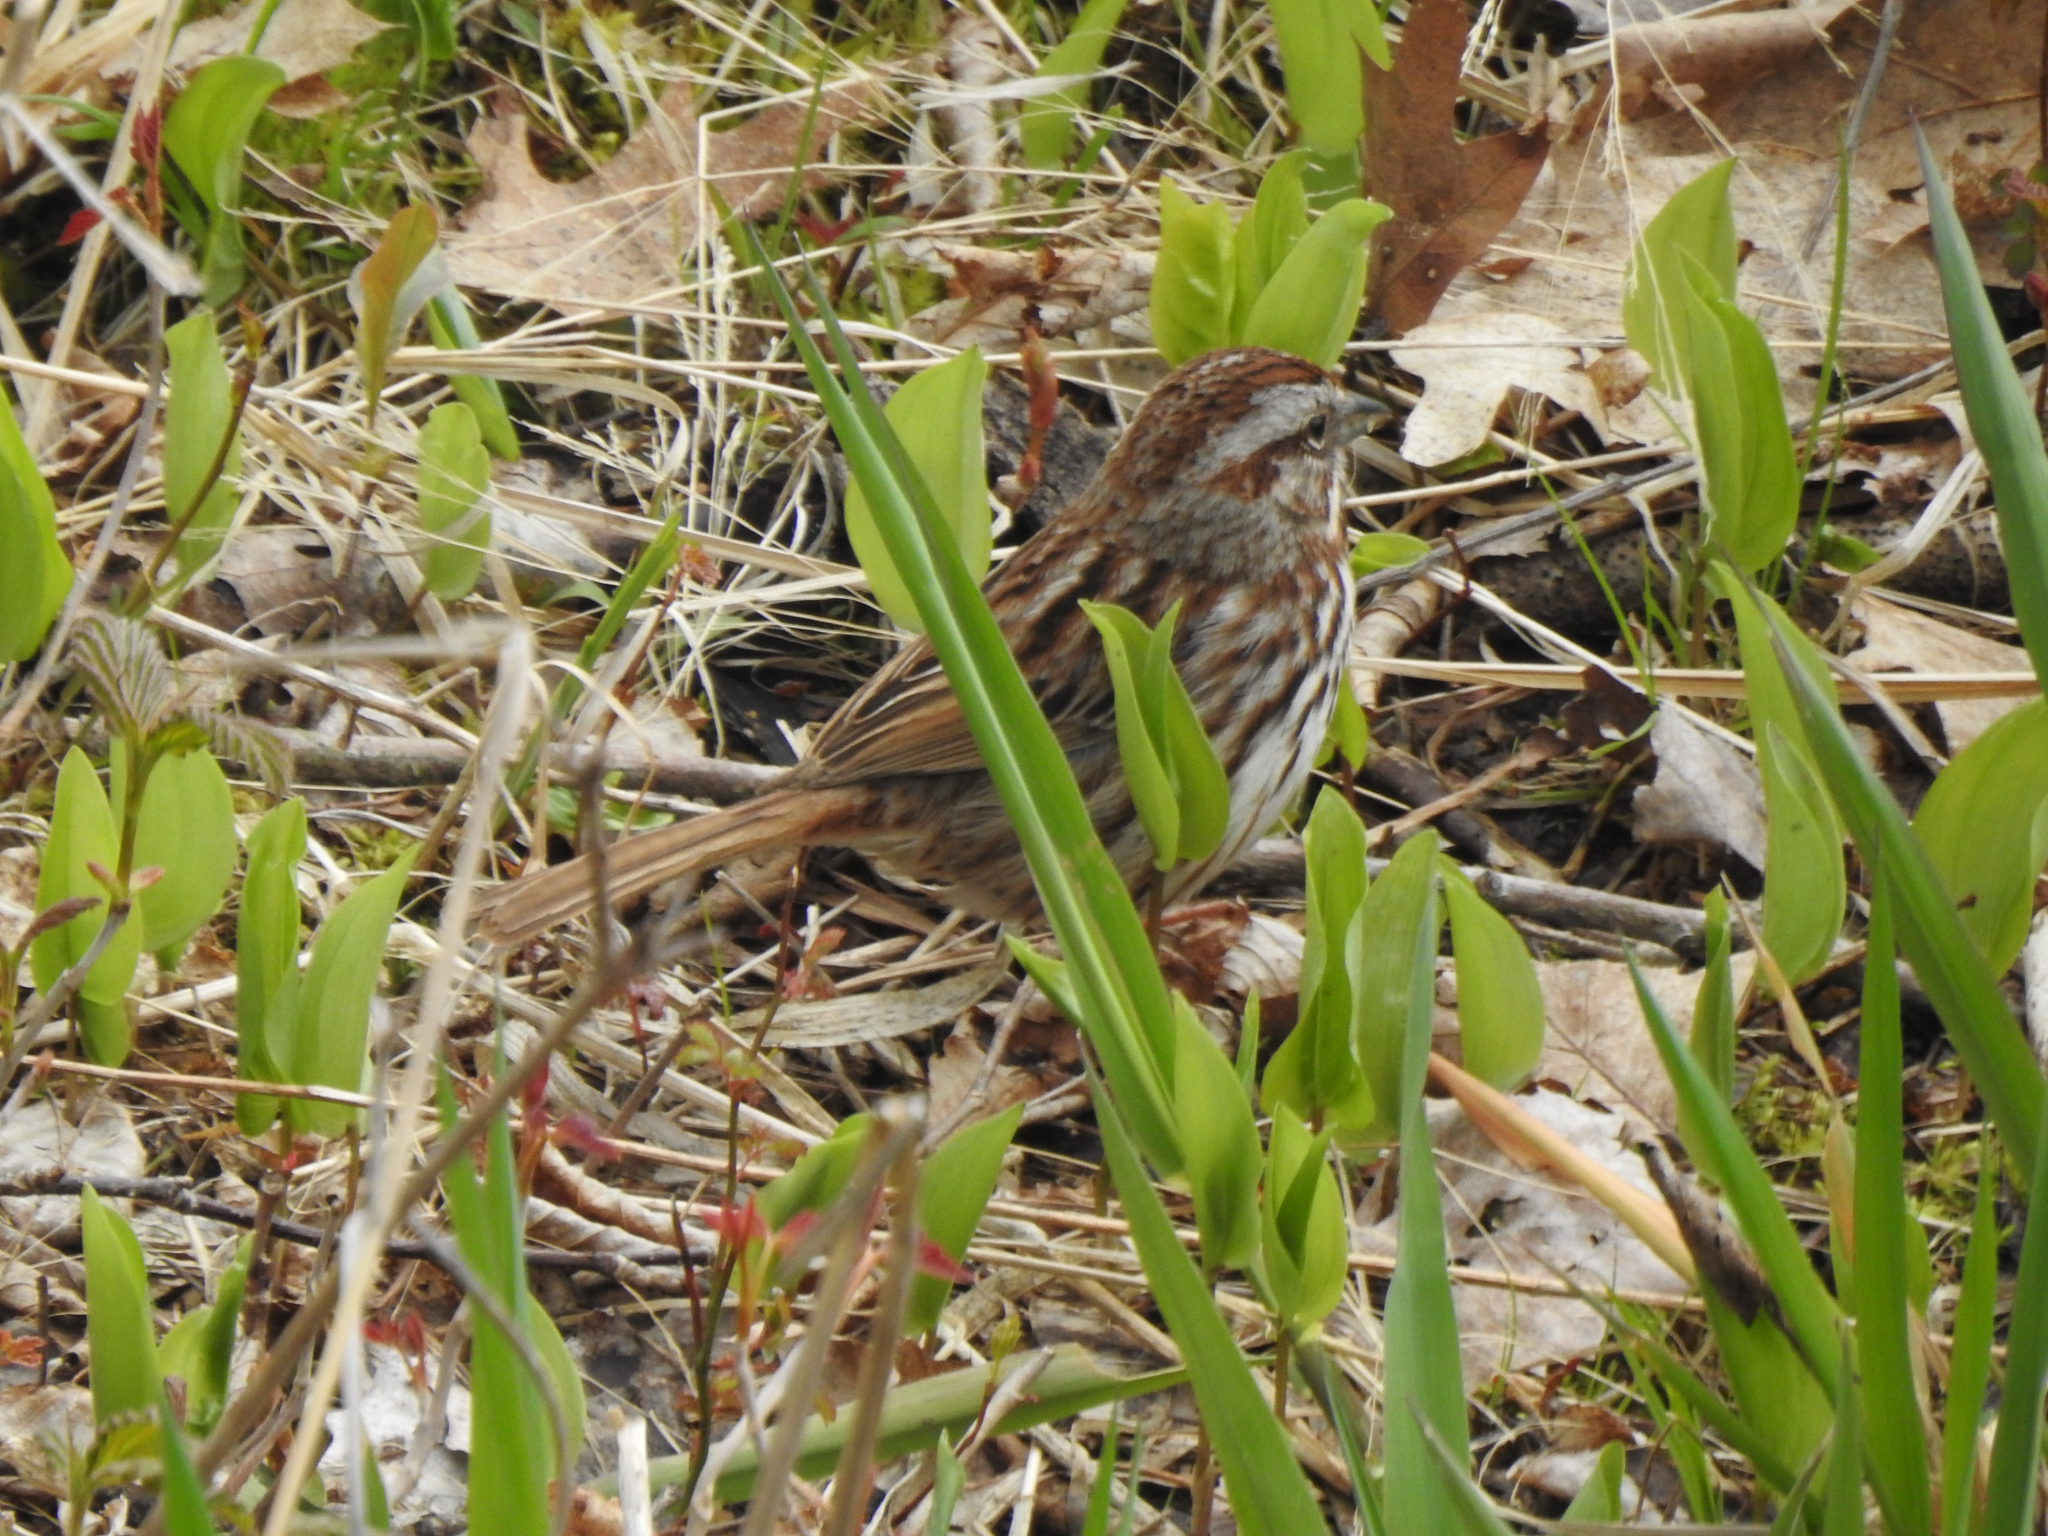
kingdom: Animalia
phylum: Chordata
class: Aves
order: Passeriformes
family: Passerellidae
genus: Melospiza
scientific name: Melospiza melodia
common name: Song sparrow
